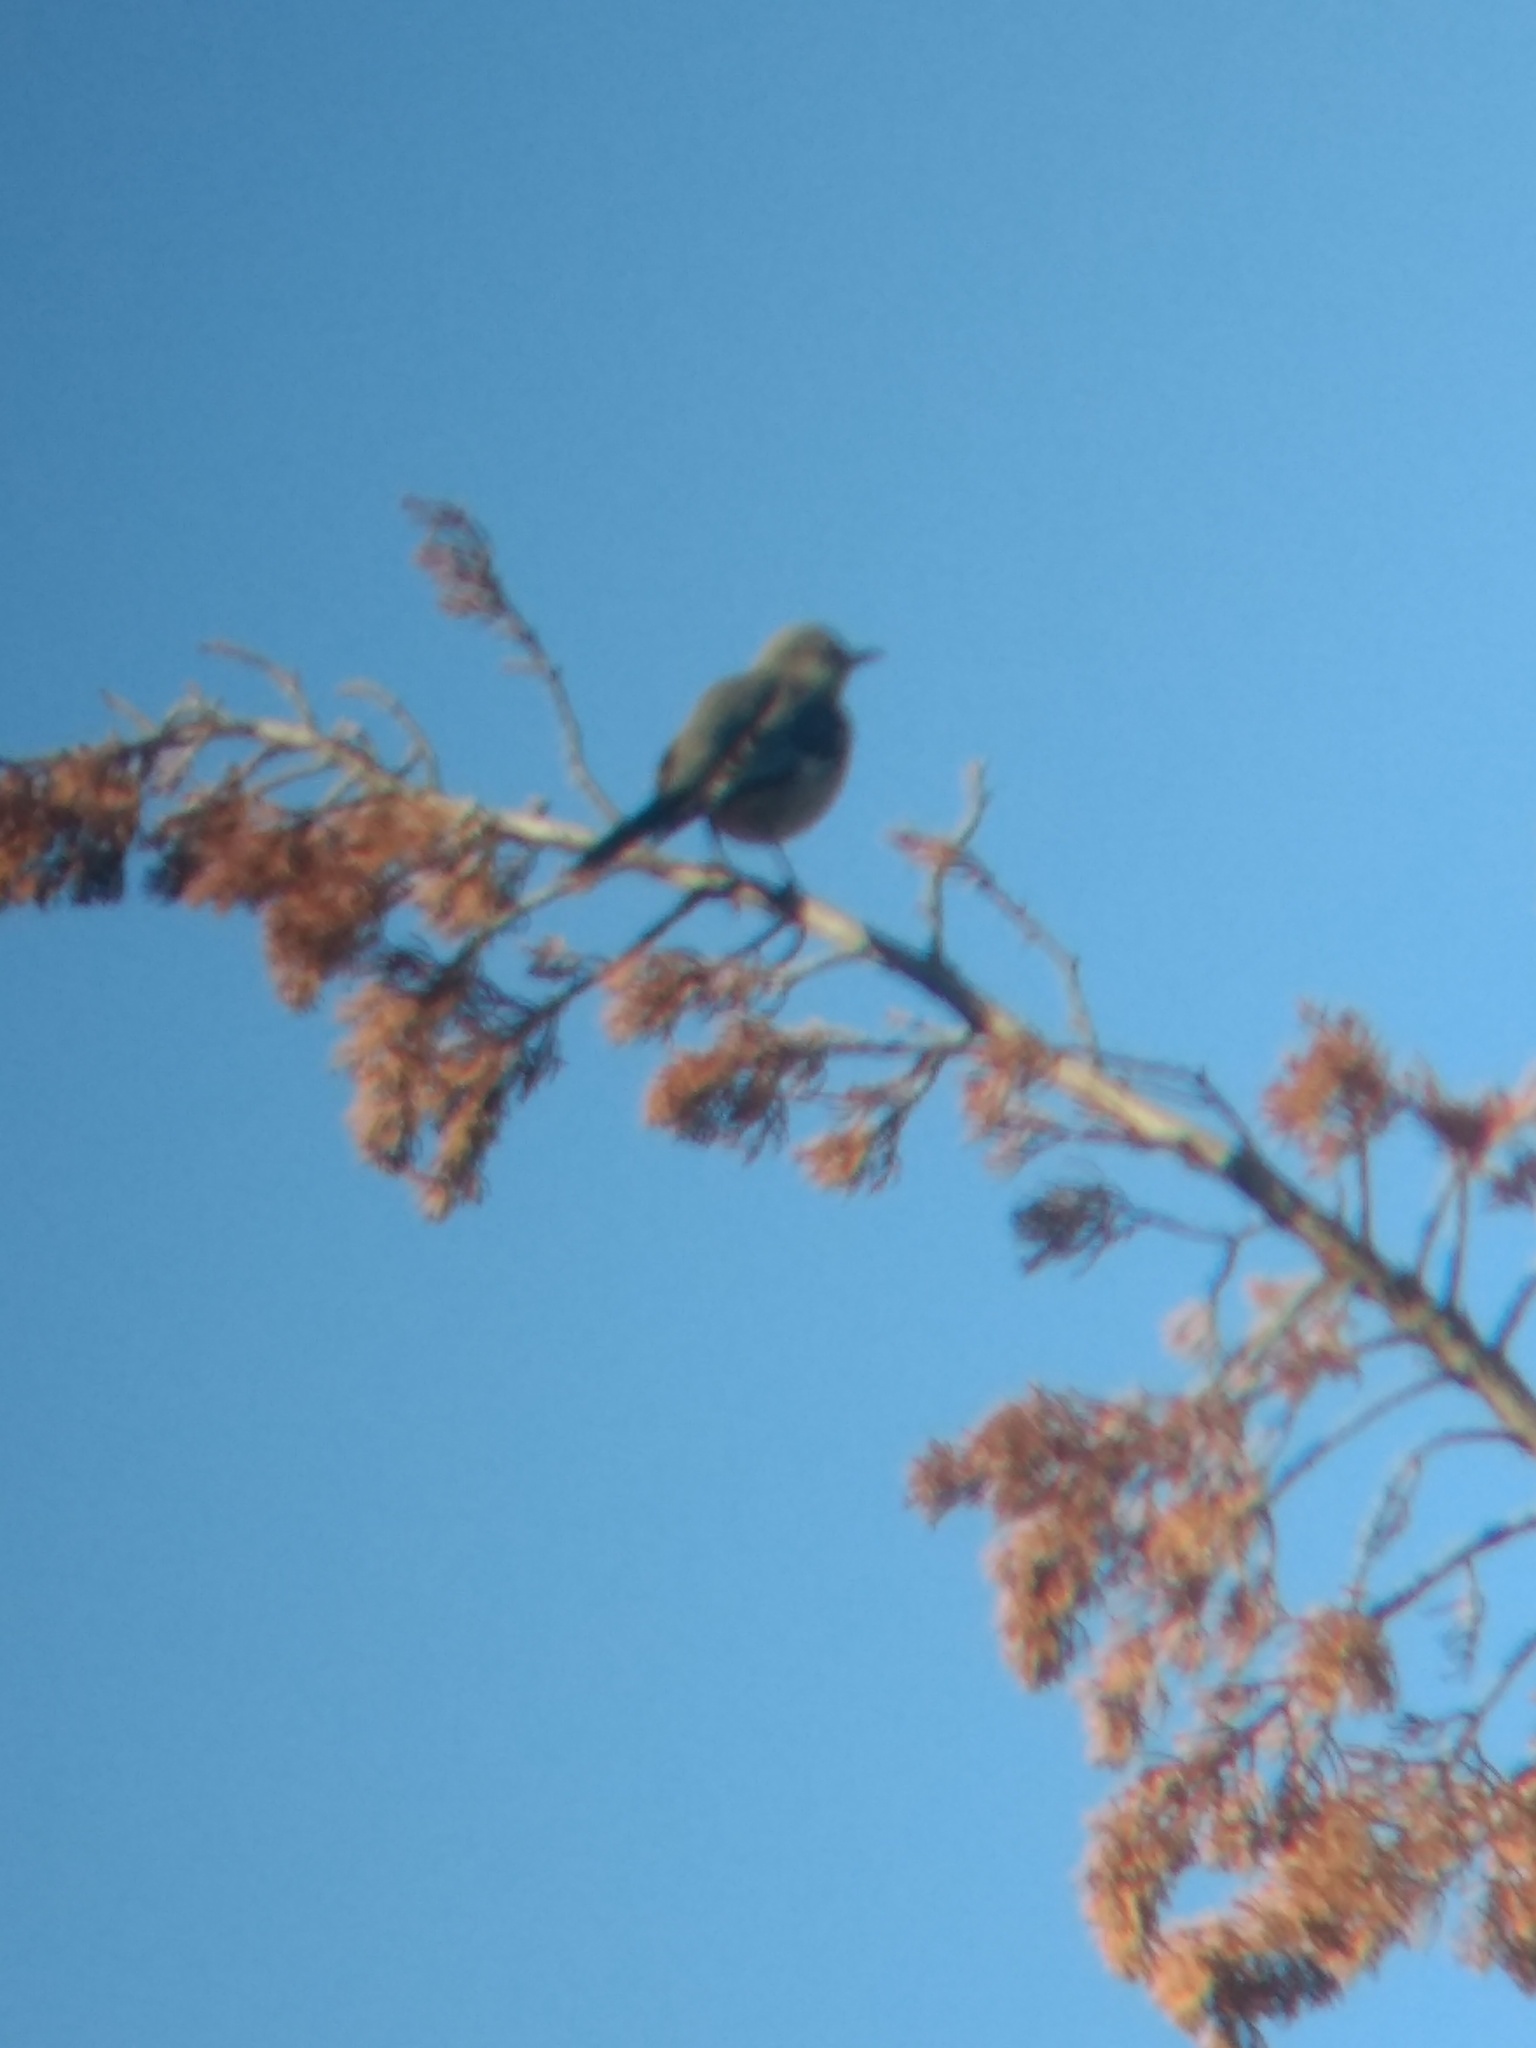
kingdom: Animalia
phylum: Chordata
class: Aves
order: Passeriformes
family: Mimidae
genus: Mimus
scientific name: Mimus polyglottos
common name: Northern mockingbird
